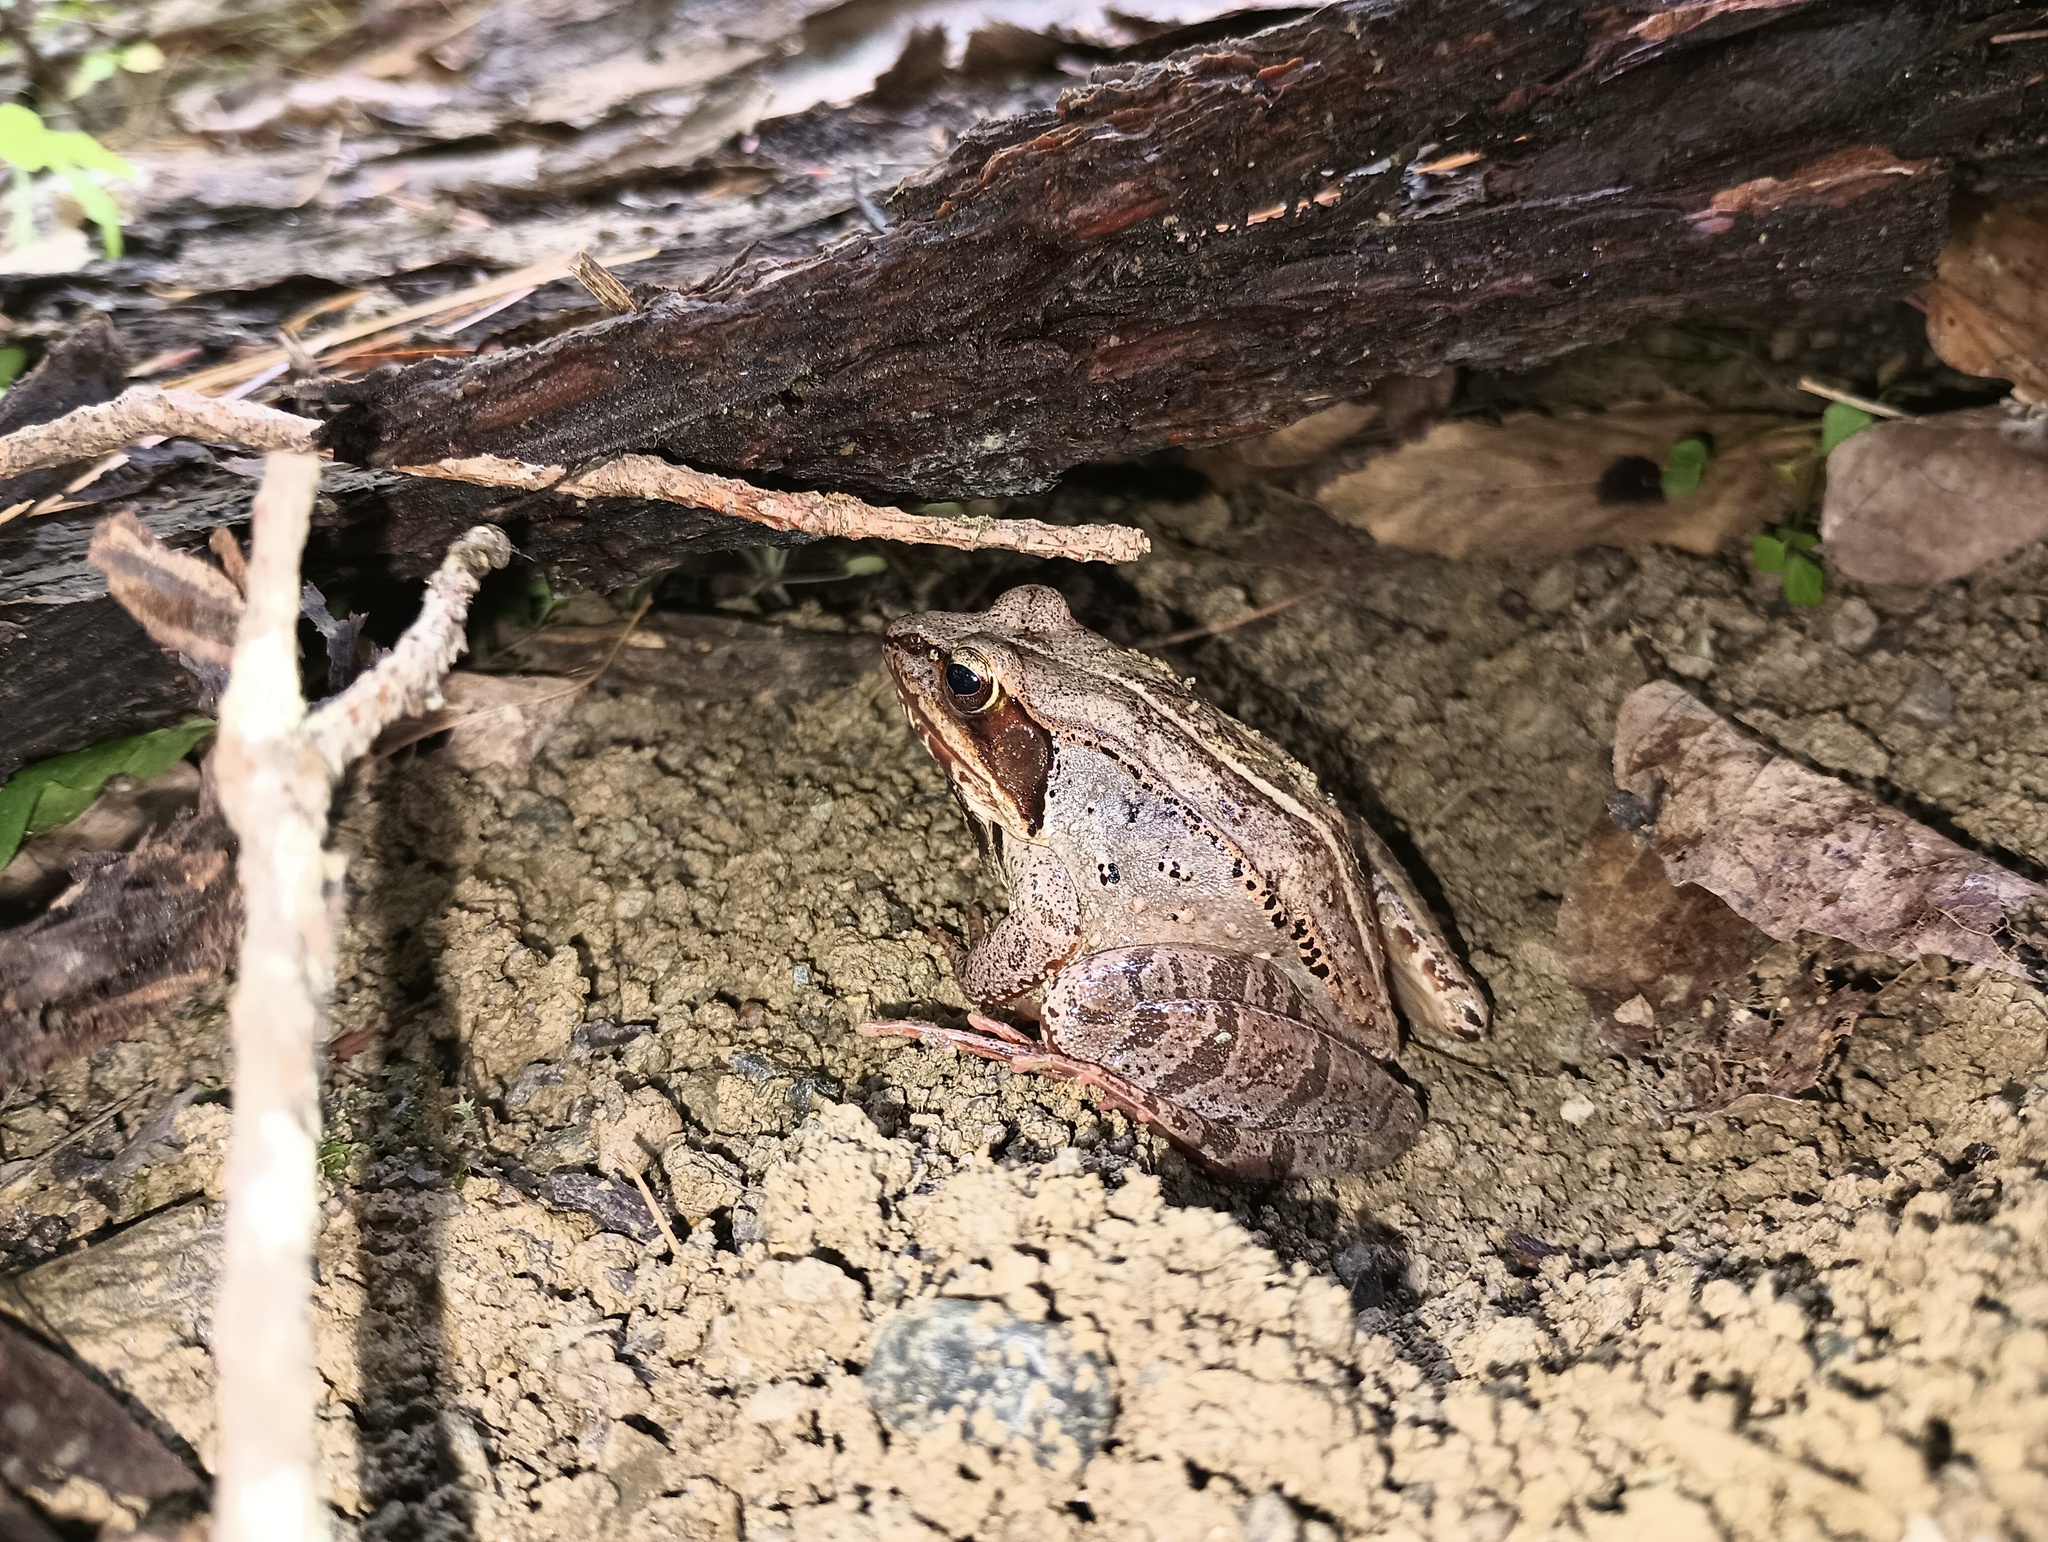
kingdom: Animalia
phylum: Chordata
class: Amphibia
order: Anura
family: Ranidae
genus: Lithobates
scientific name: Lithobates sylvaticus
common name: Wood frog
